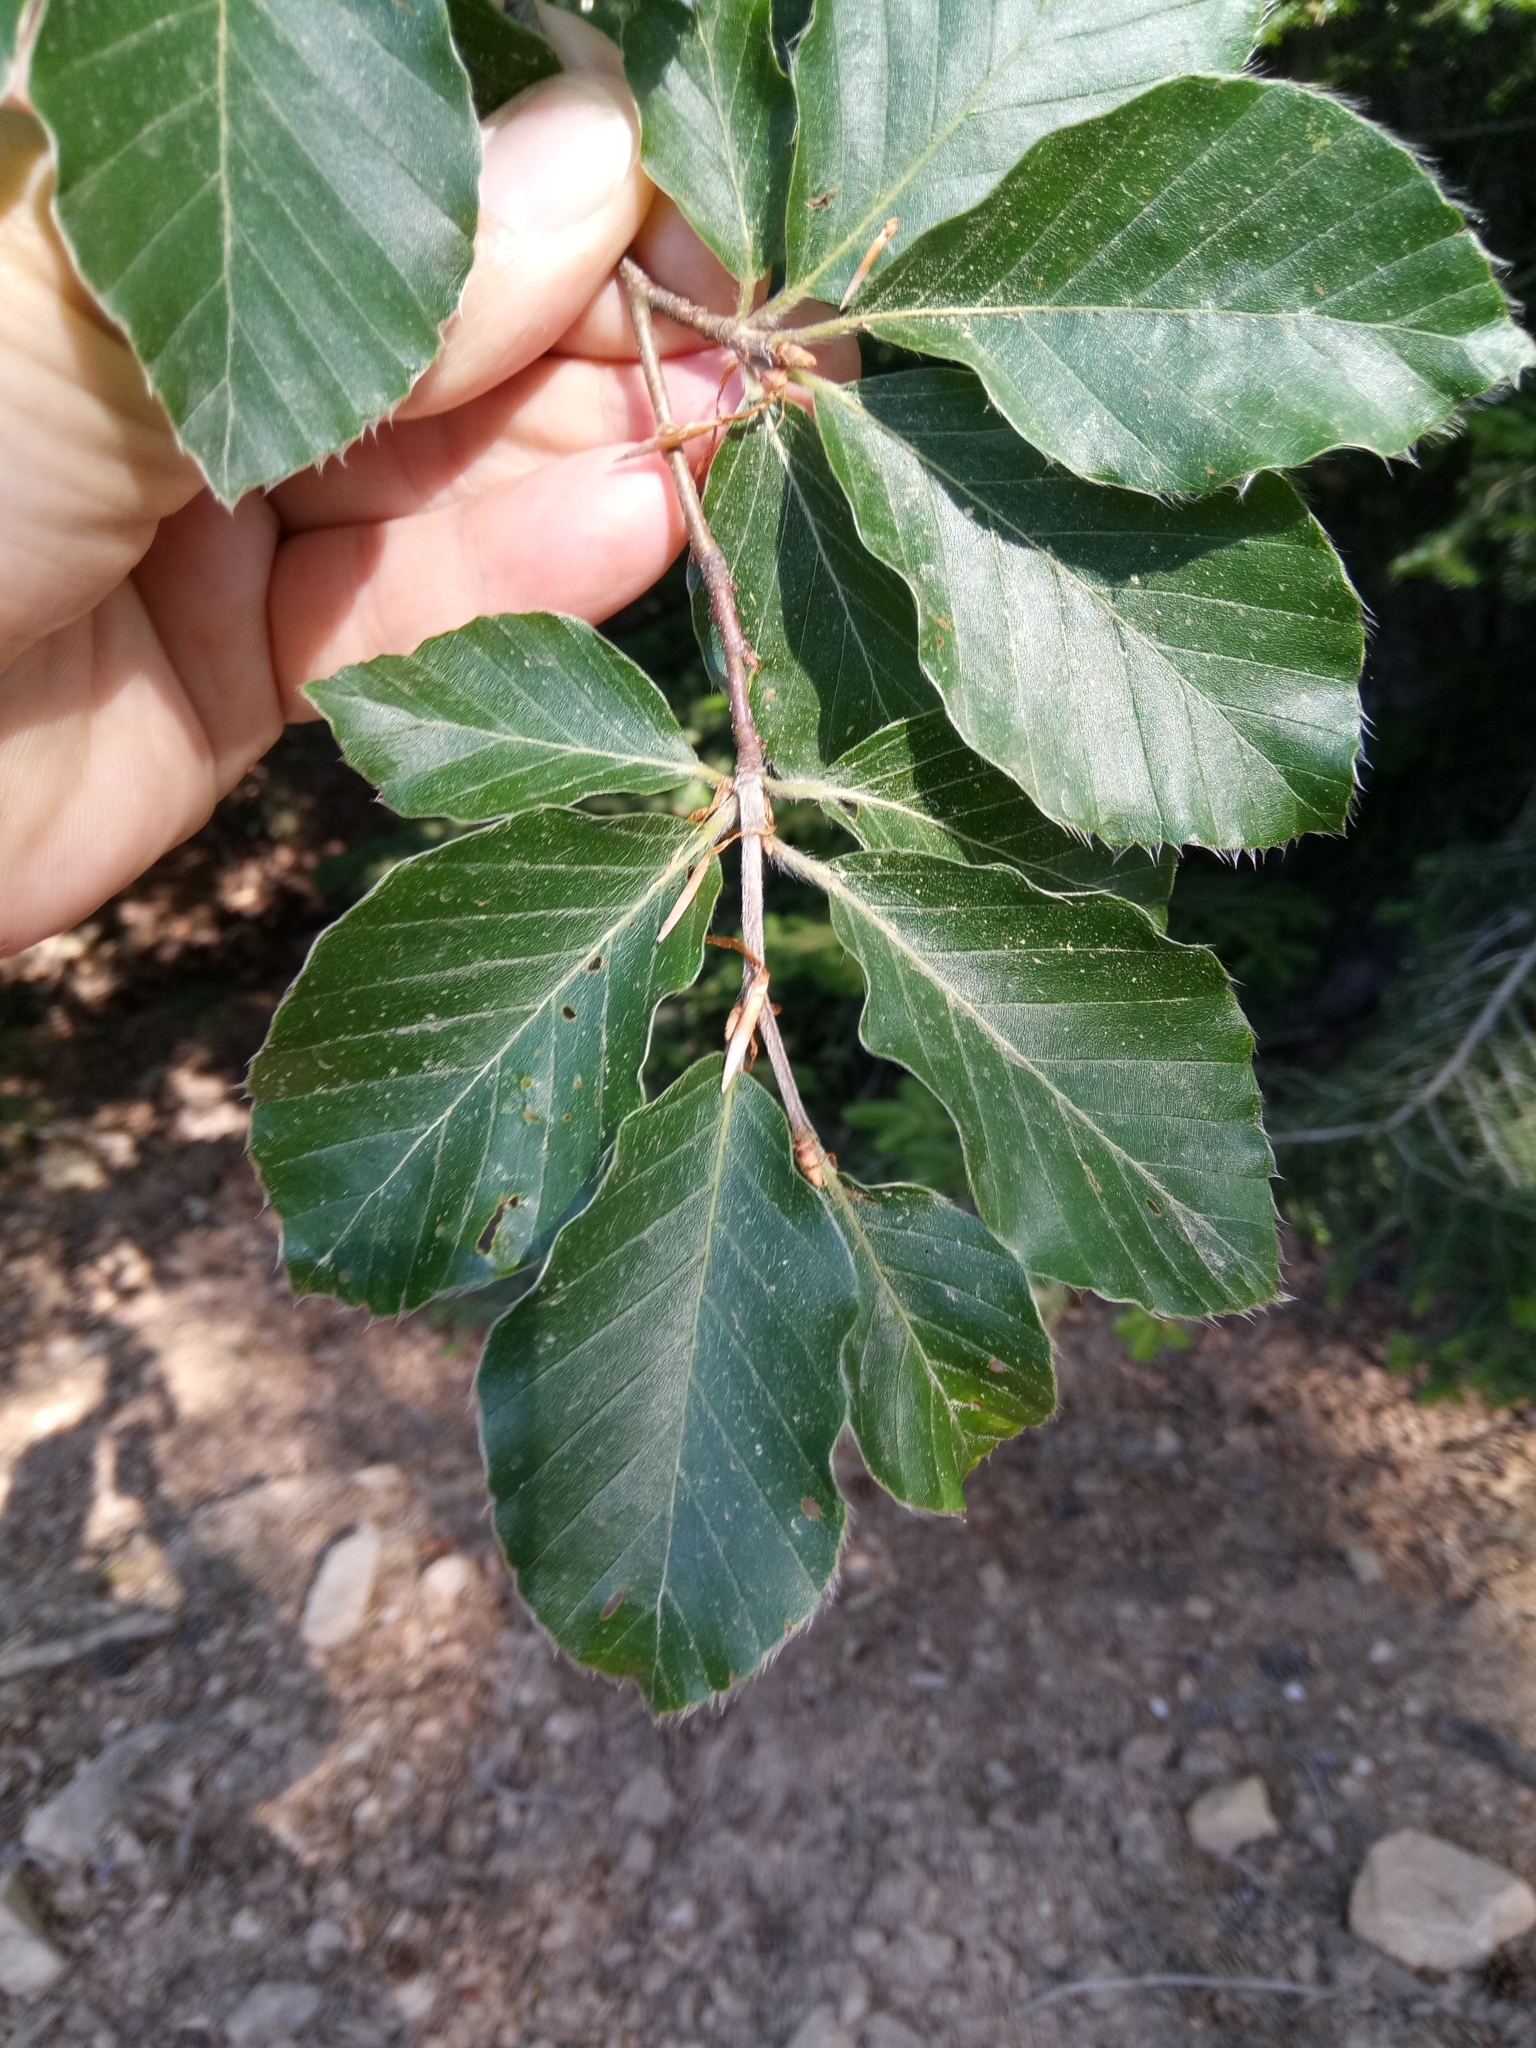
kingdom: Plantae
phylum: Tracheophyta
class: Magnoliopsida
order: Fagales
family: Fagaceae
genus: Fagus
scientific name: Fagus sylvatica
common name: Beech
